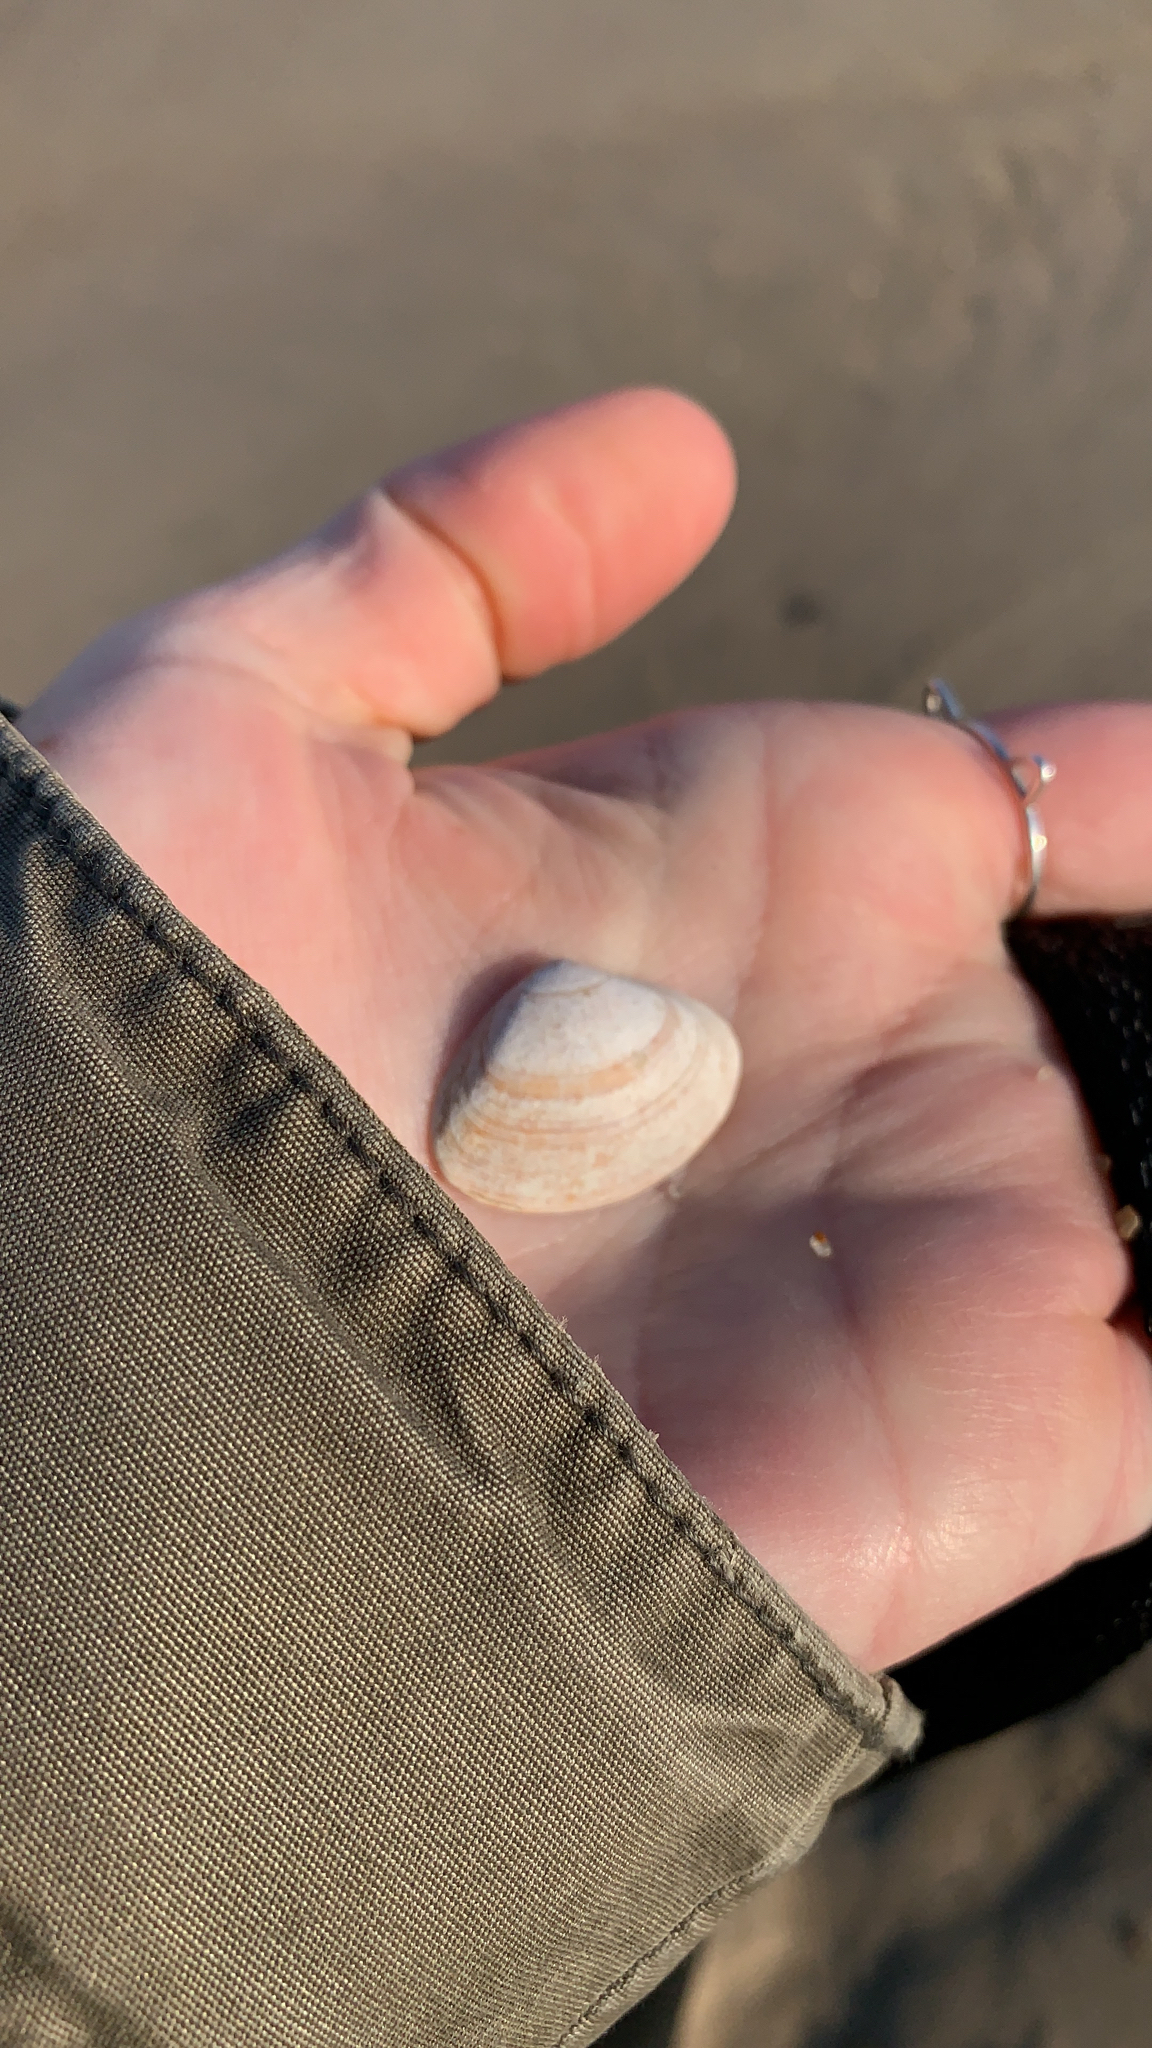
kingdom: Animalia
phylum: Mollusca
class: Bivalvia
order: Venerida
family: Mactridae
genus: Spisula
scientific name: Spisula solidissima
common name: Atlantic surf clam
